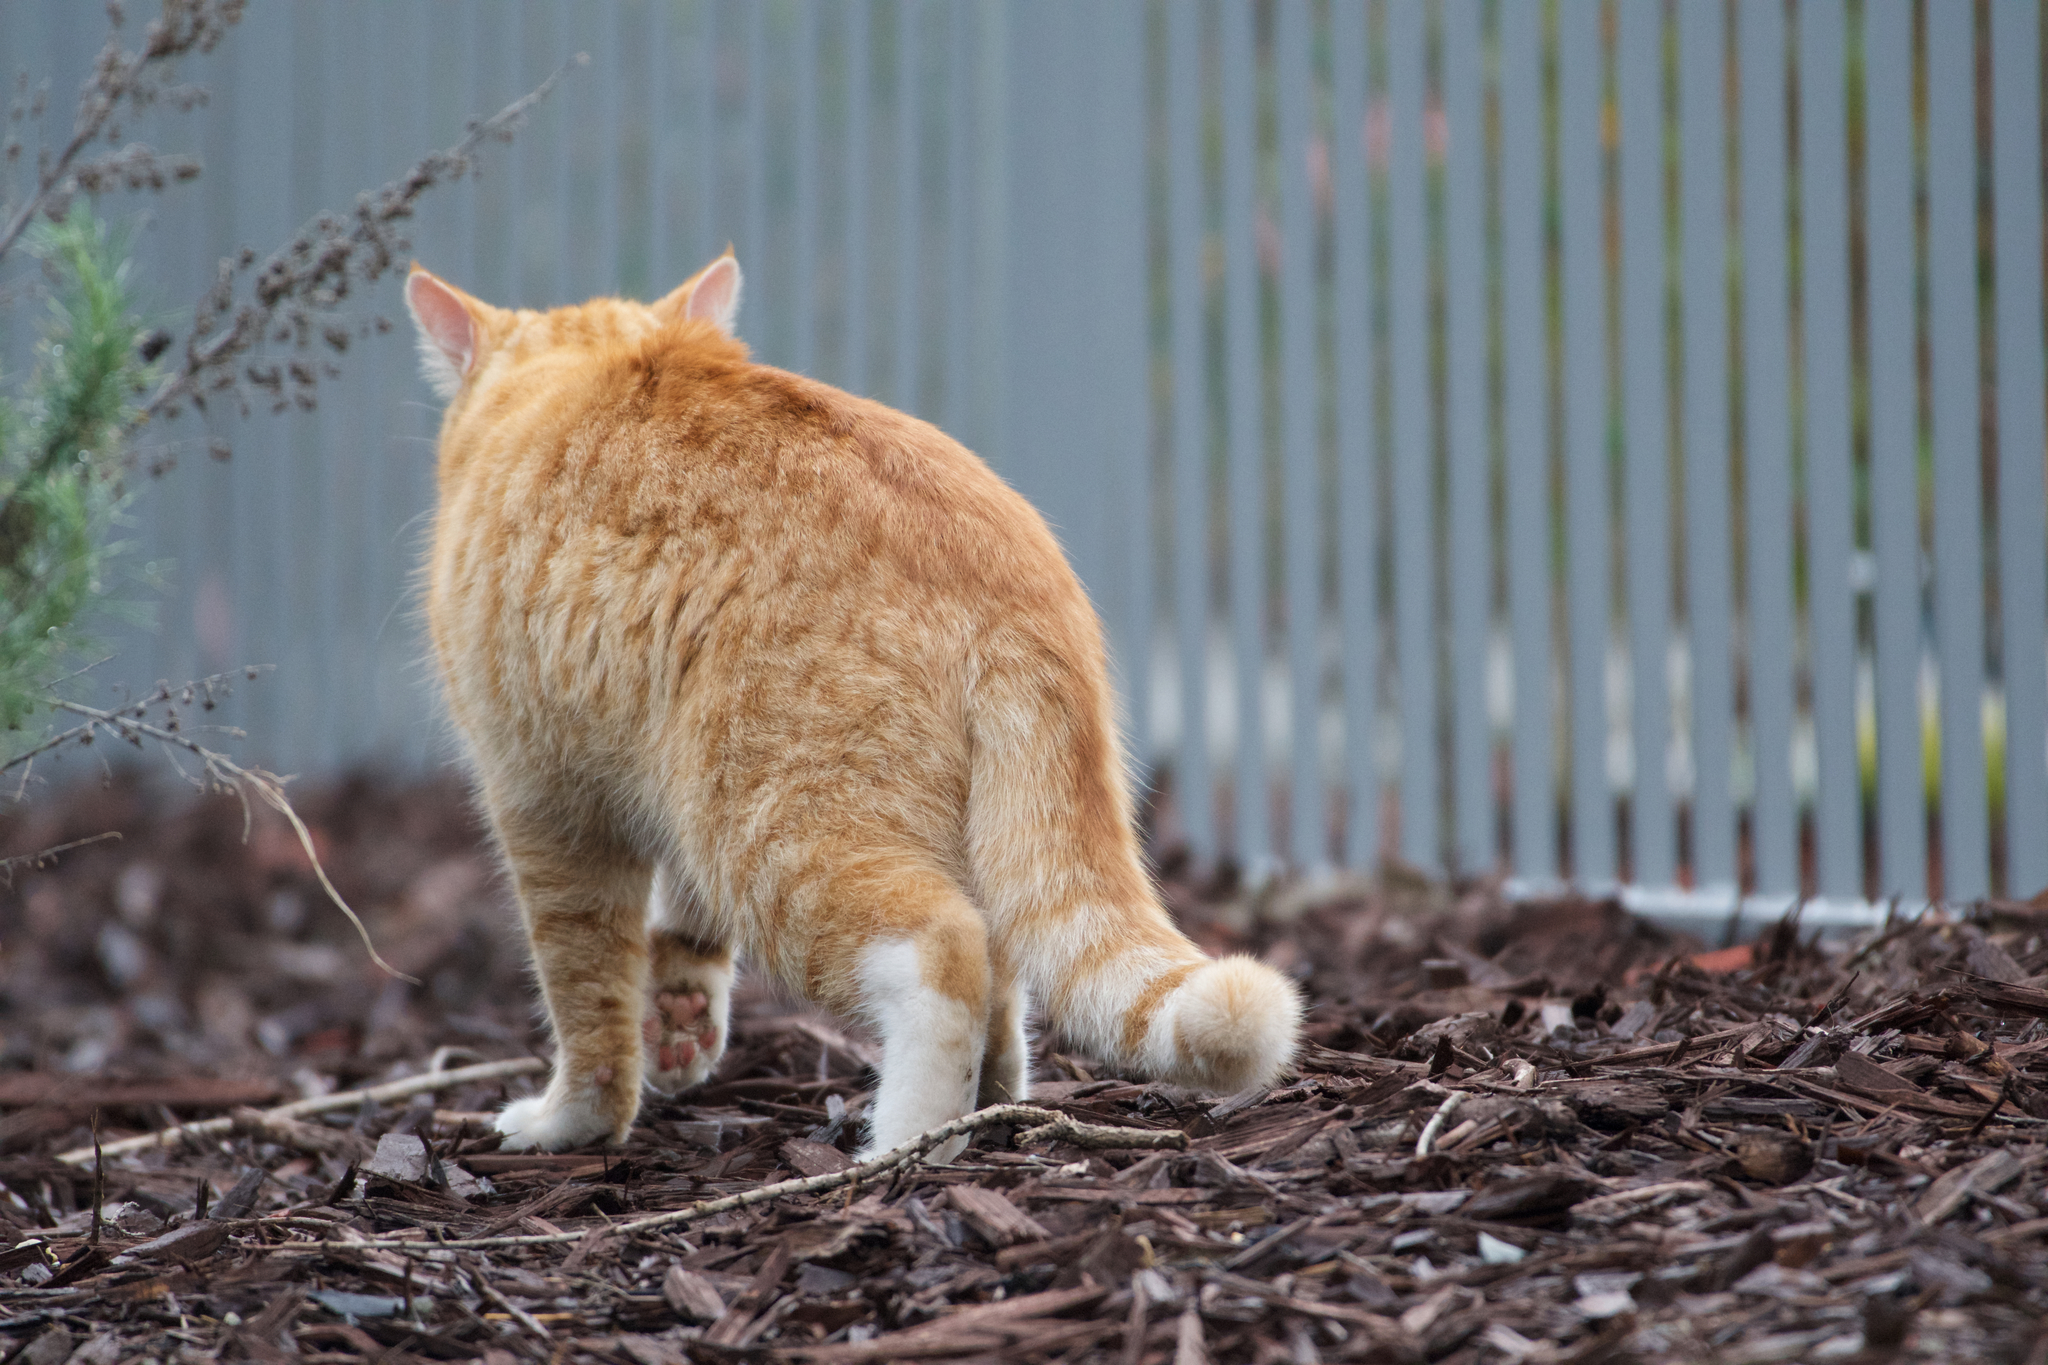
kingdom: Animalia
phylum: Chordata
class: Mammalia
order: Carnivora
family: Felidae
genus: Felis
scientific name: Felis catus
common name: Domestic cat
